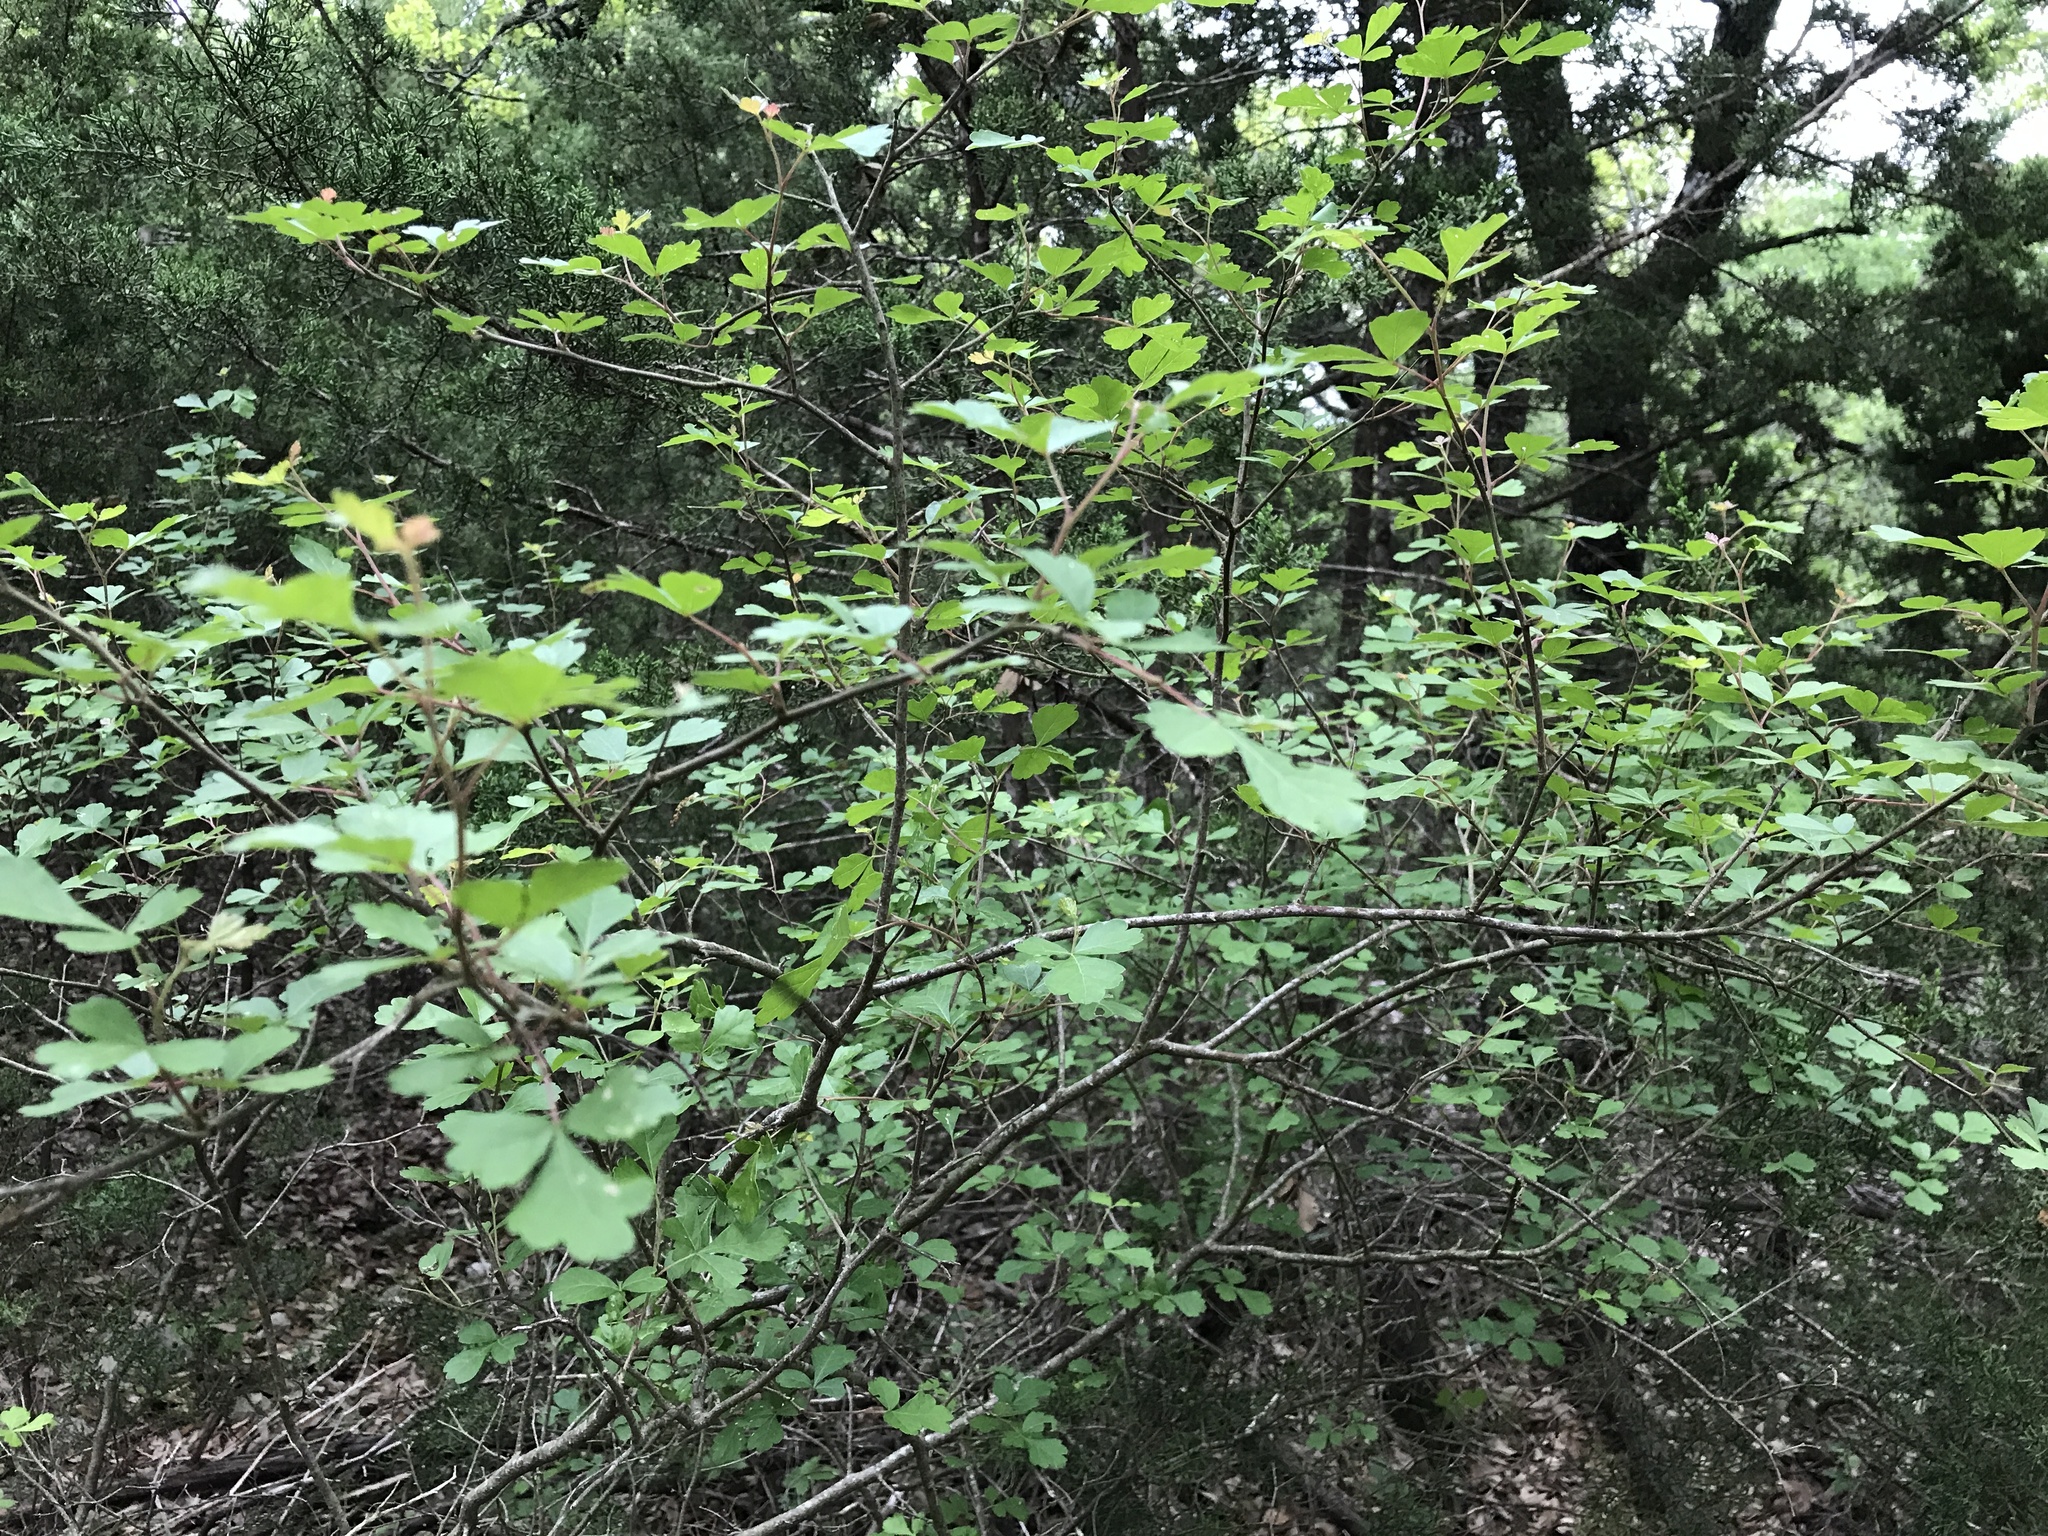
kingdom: Plantae
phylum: Tracheophyta
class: Magnoliopsida
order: Sapindales
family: Anacardiaceae
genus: Rhus
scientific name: Rhus aromatica
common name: Aromatic sumac
